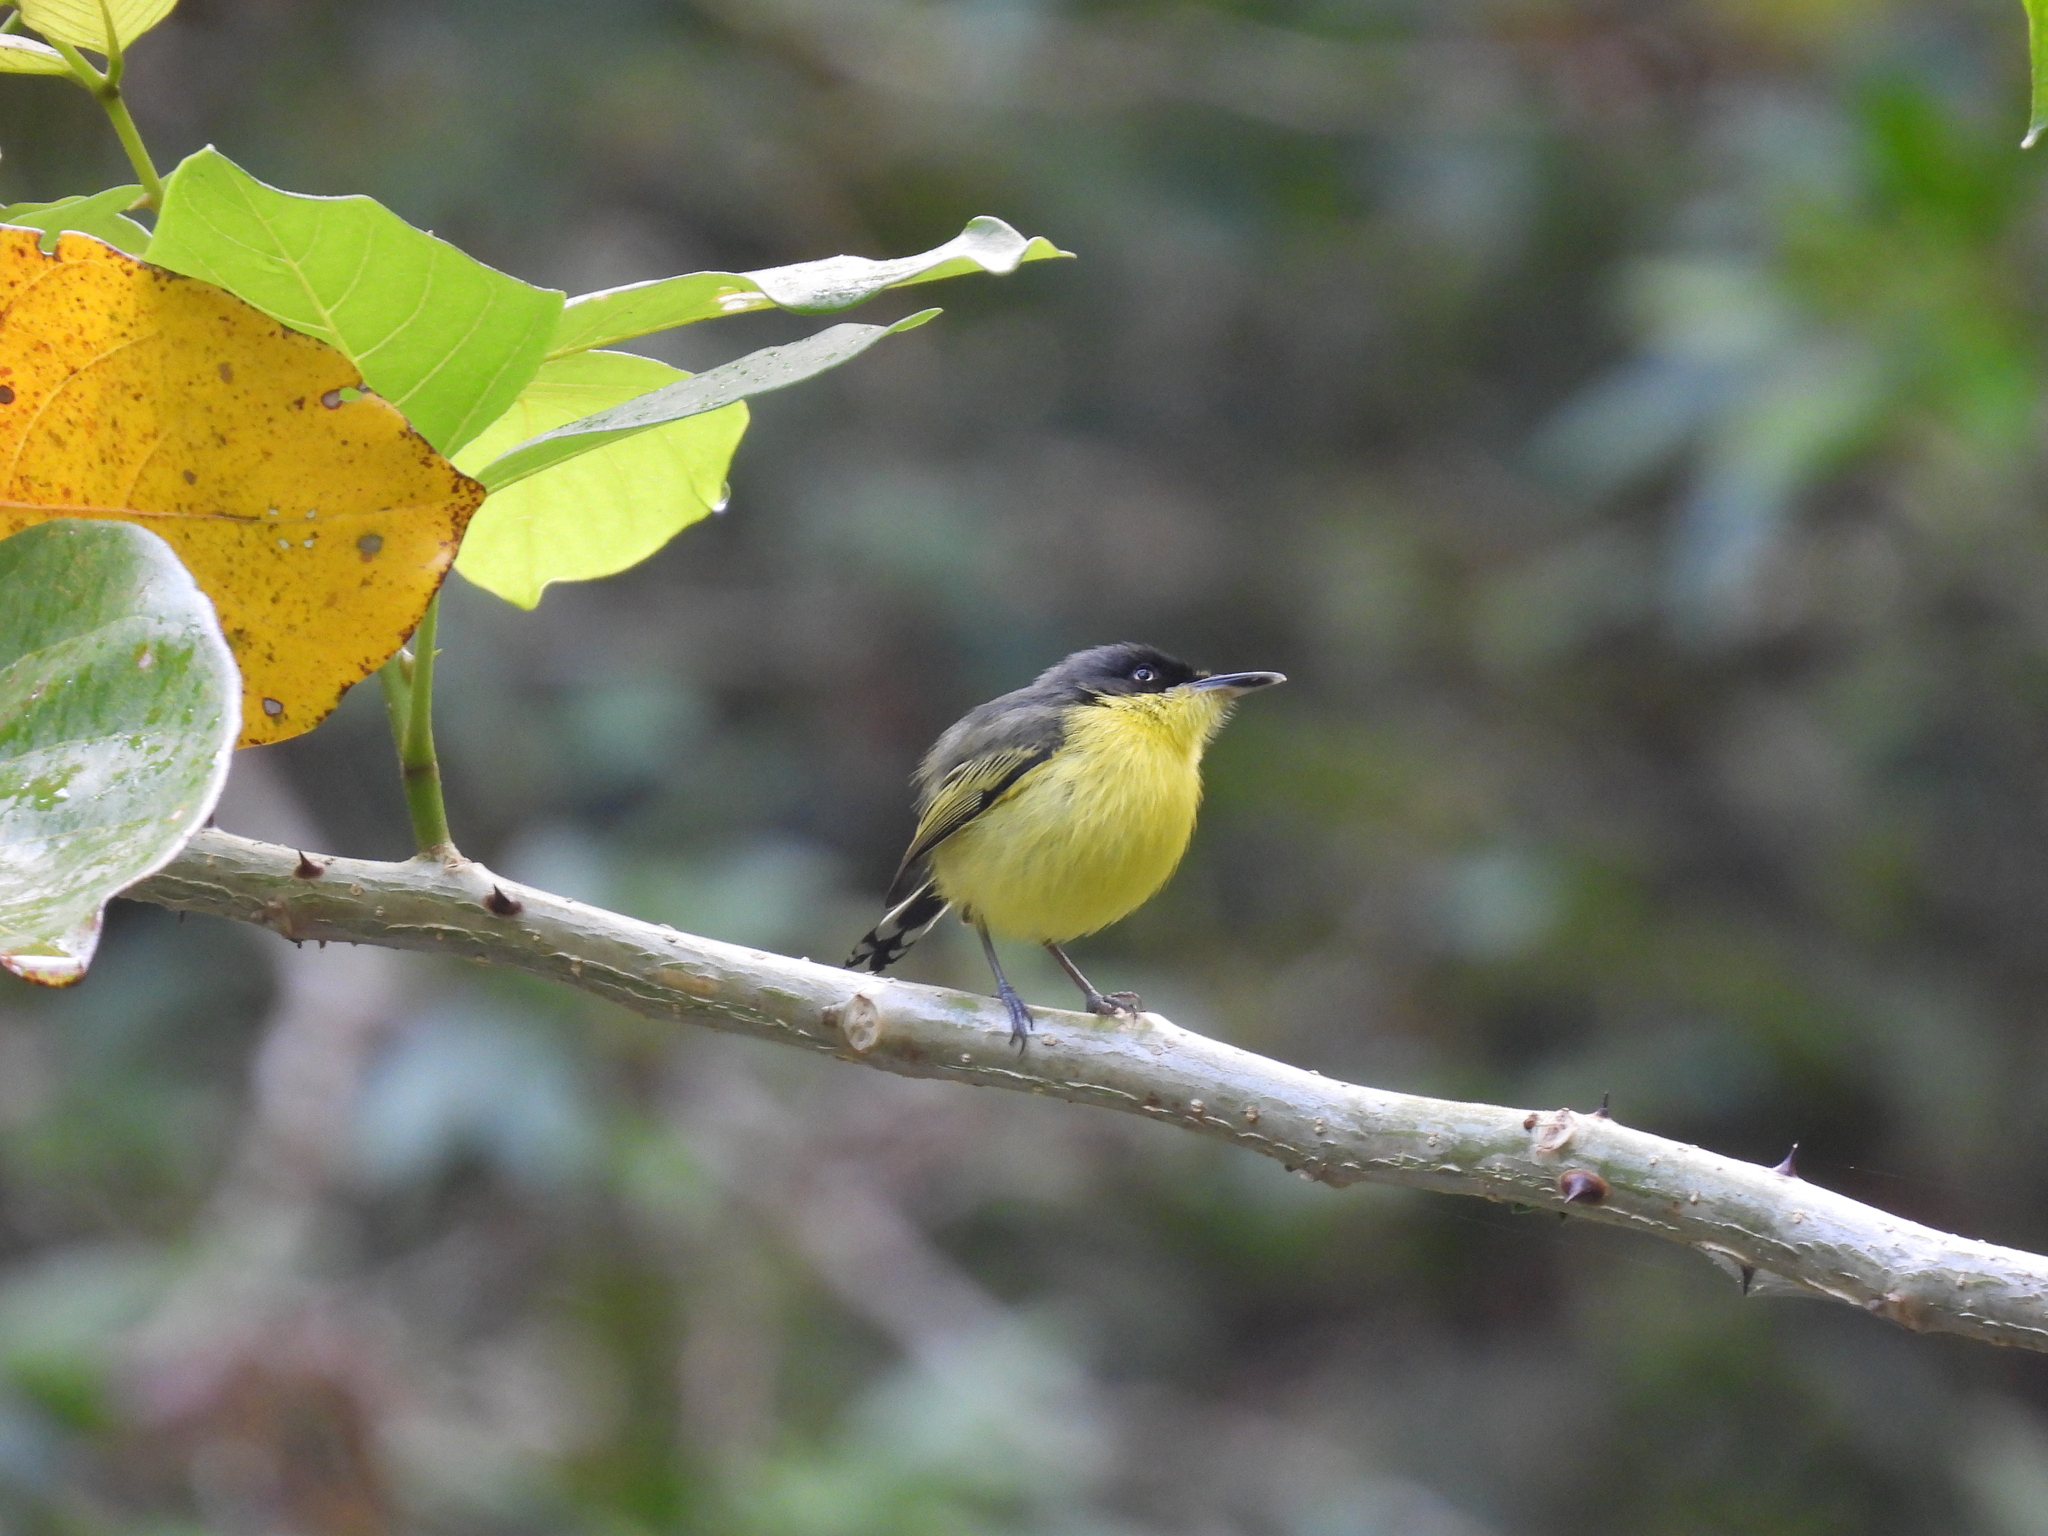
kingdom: Animalia
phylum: Chordata
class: Aves
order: Passeriformes
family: Tyrannidae
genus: Todirostrum
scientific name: Todirostrum cinereum
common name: Common tody-flycatcher
